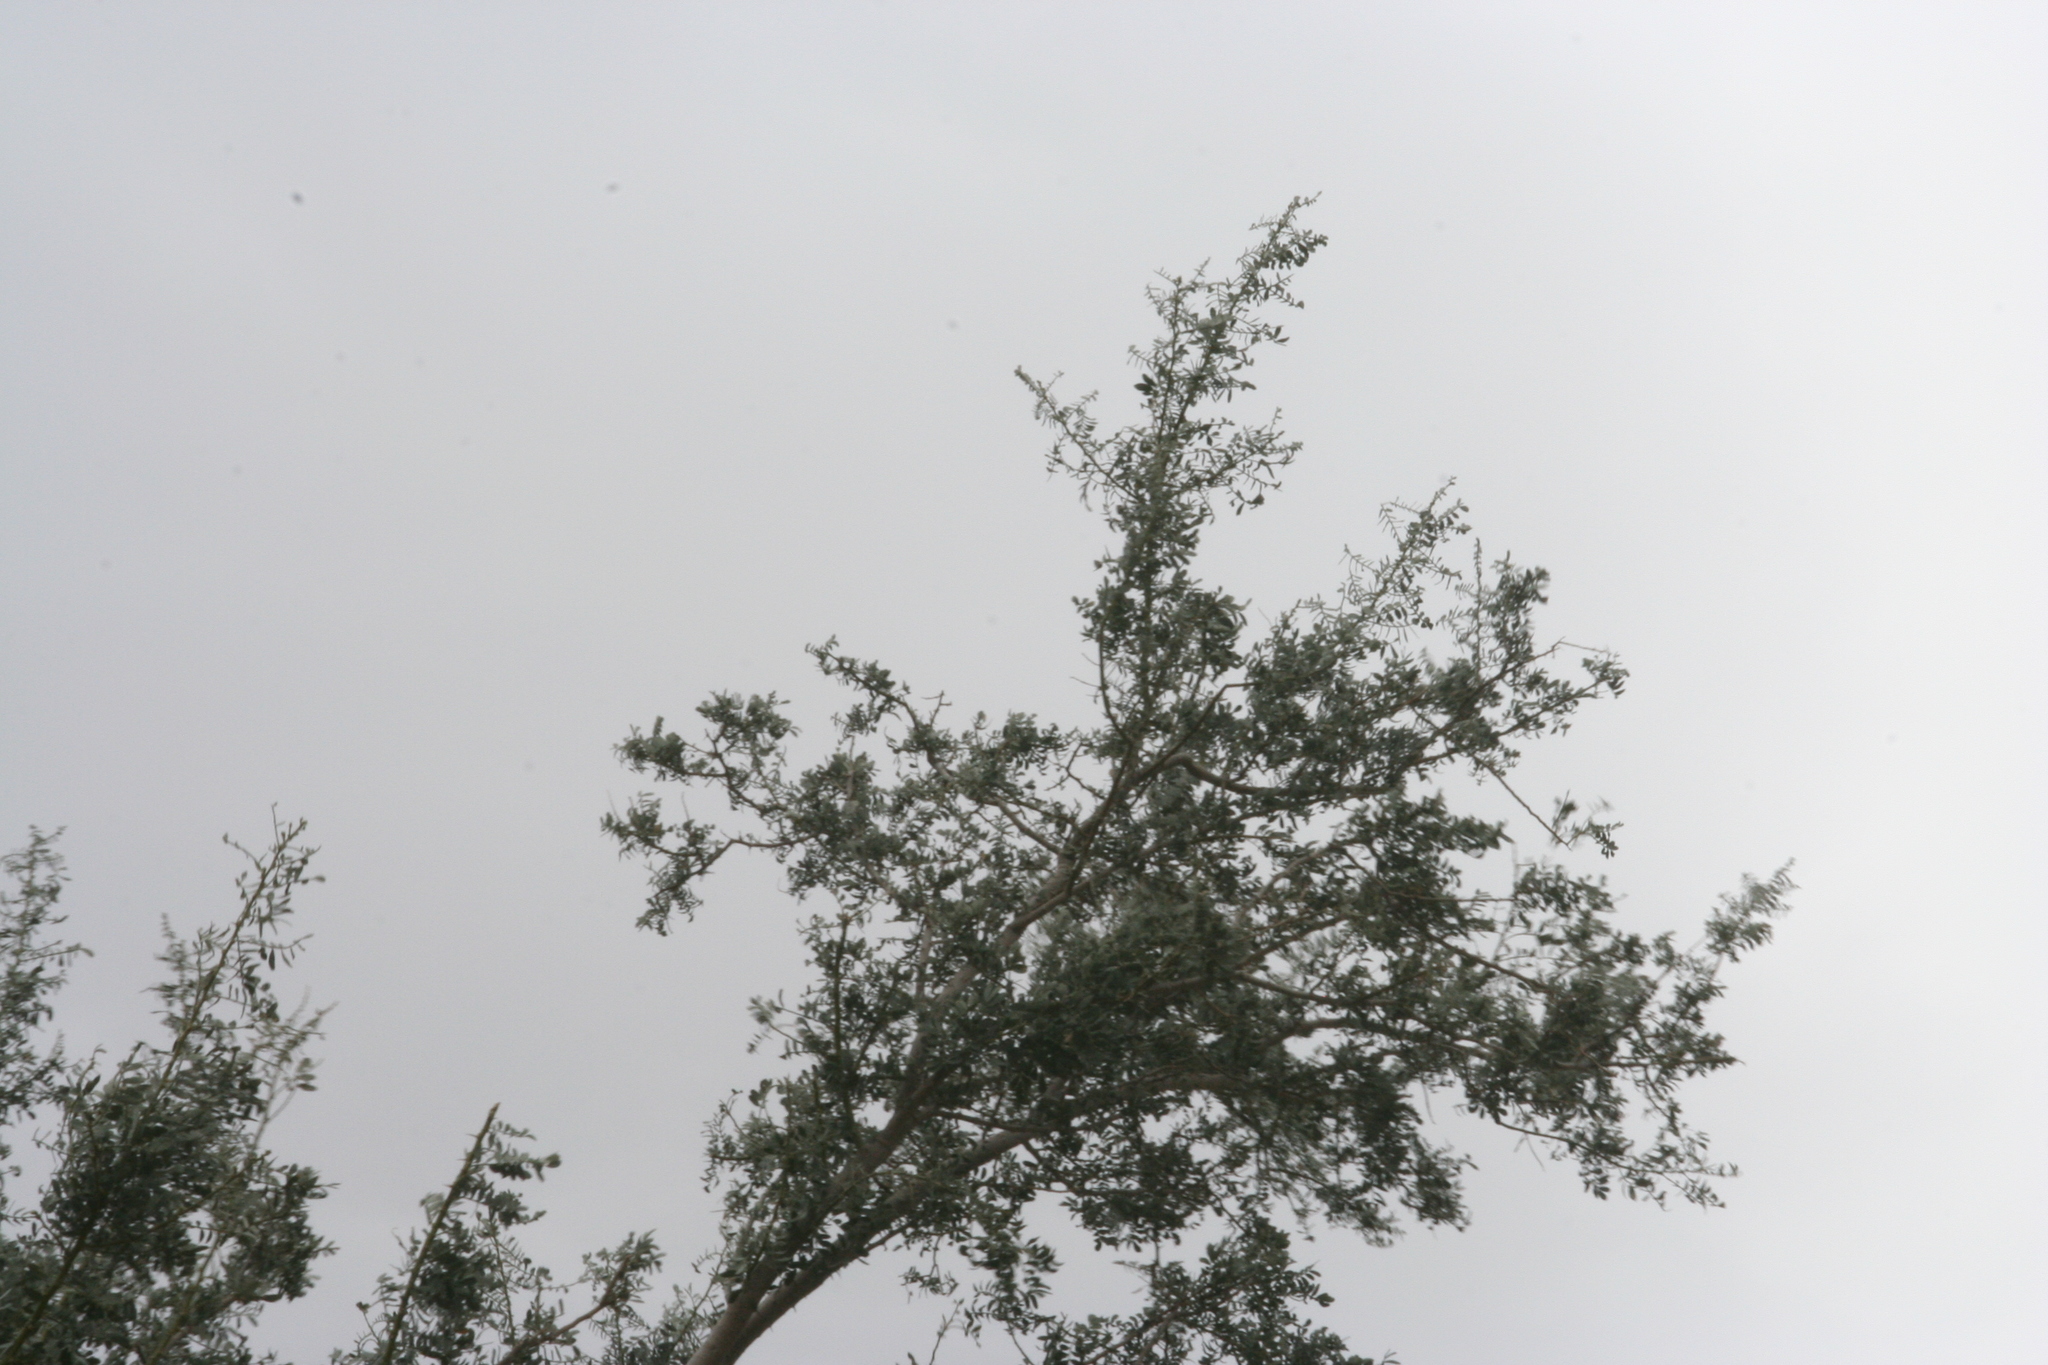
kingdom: Plantae
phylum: Tracheophyta
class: Magnoliopsida
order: Fabales
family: Fabaceae
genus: Olneya
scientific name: Olneya tesota
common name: Desert ironwood
